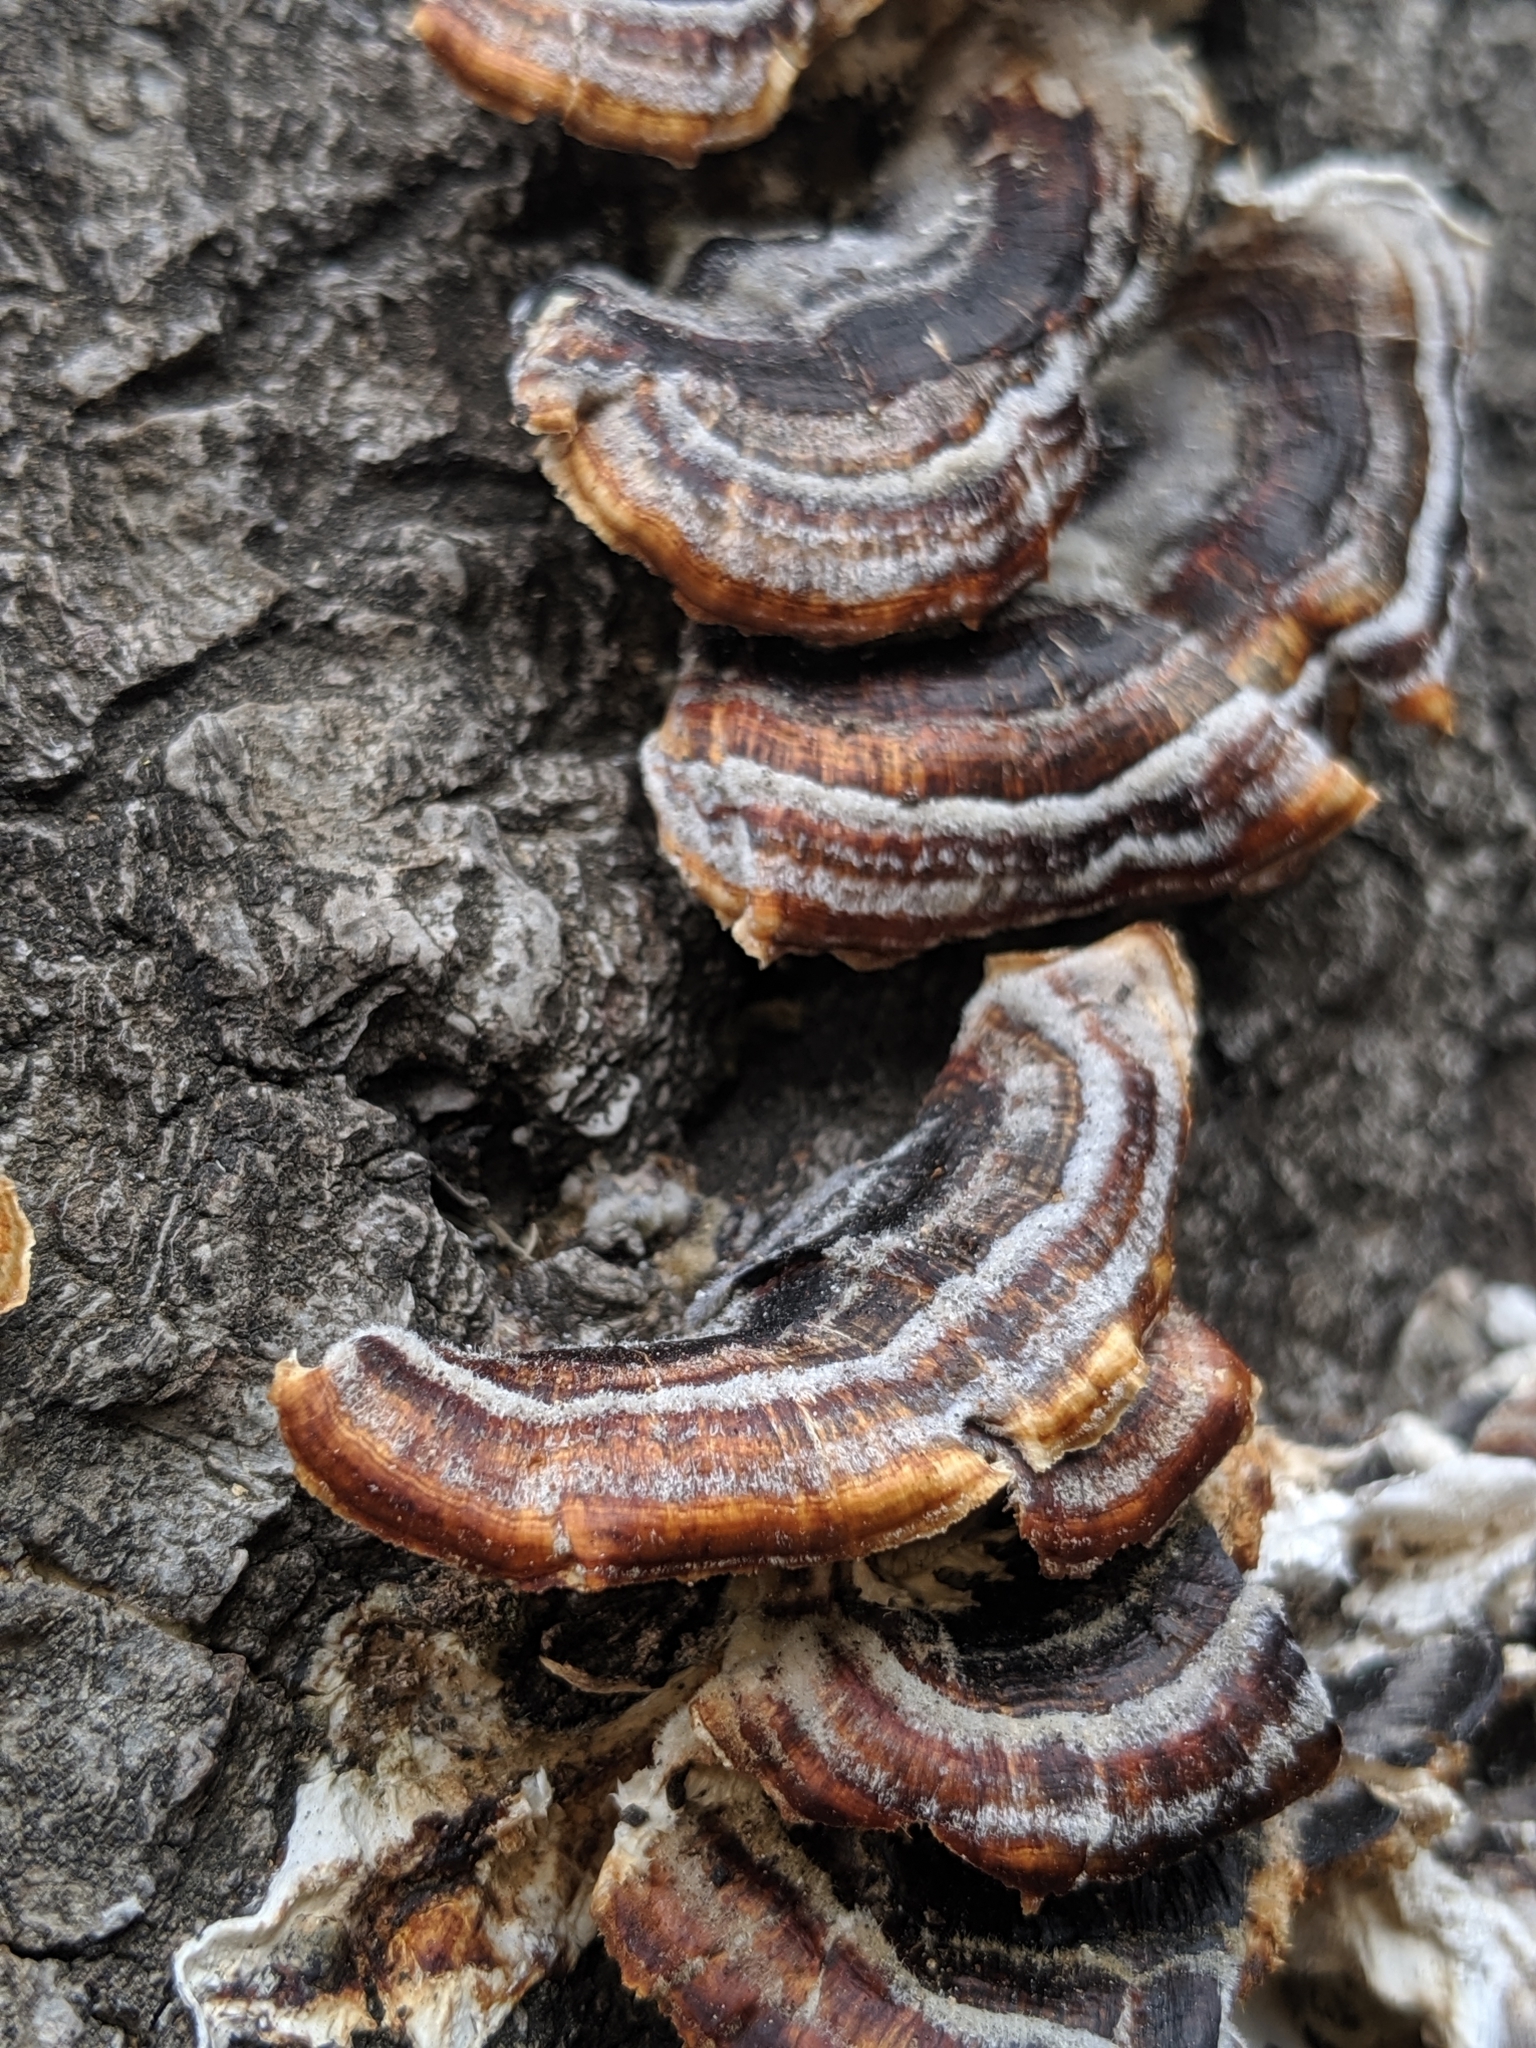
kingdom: Fungi
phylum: Basidiomycota
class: Agaricomycetes
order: Polyporales
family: Polyporaceae
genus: Trametes
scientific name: Trametes versicolor
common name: Turkeytail
